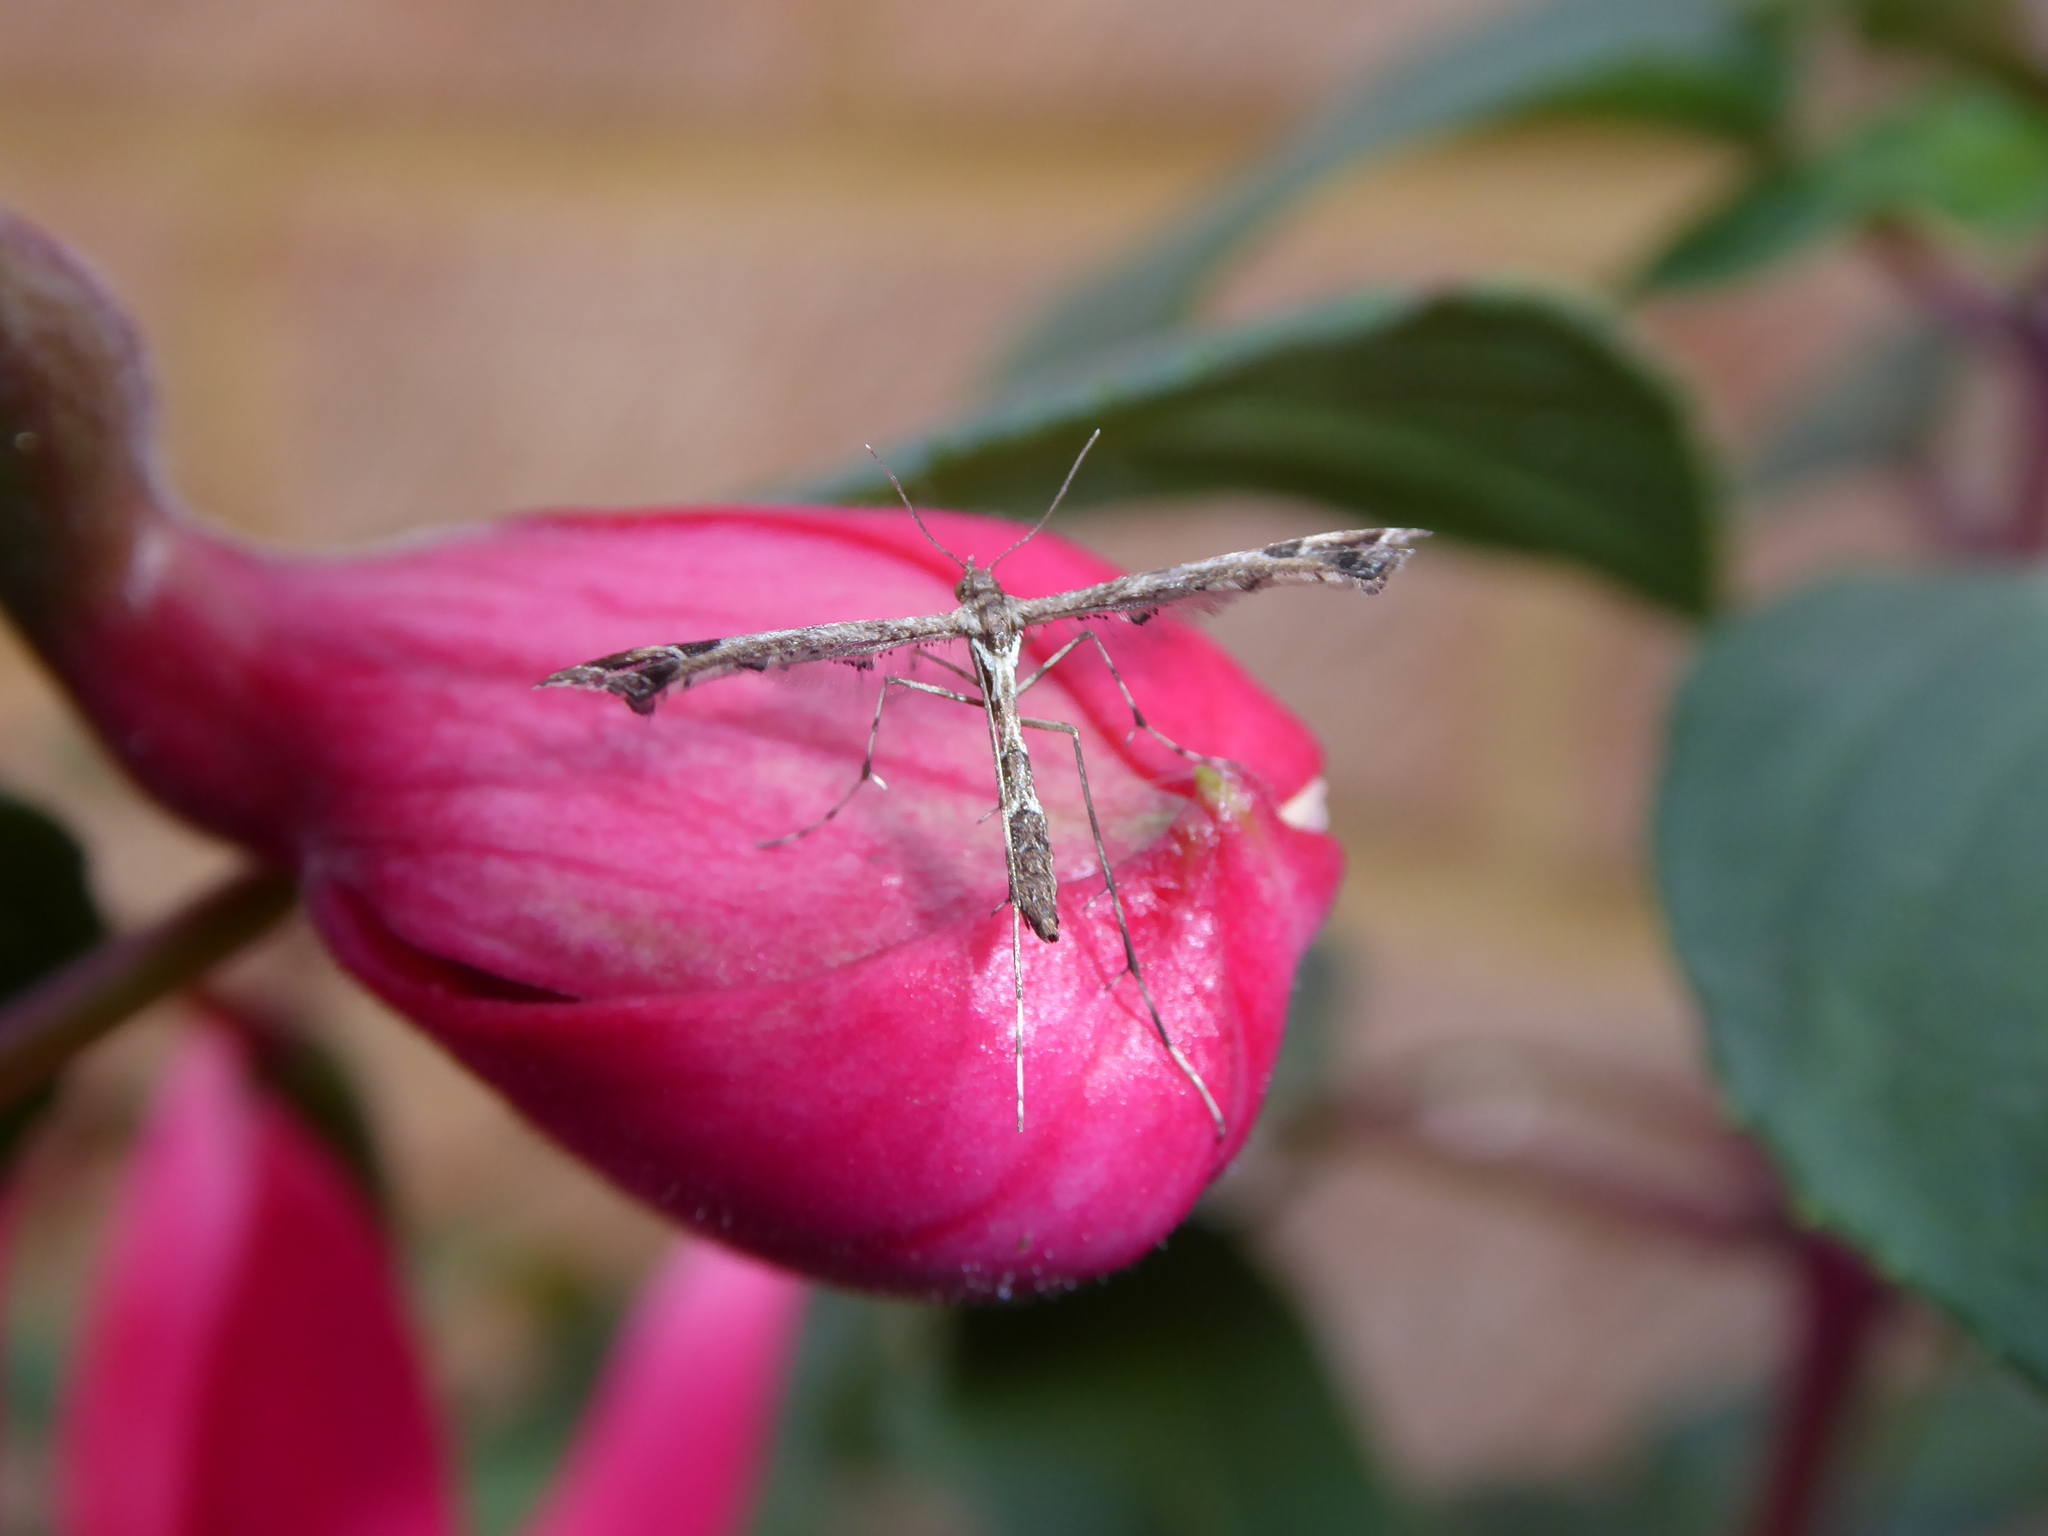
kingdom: Animalia
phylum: Arthropoda
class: Insecta
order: Lepidoptera
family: Pterophoridae
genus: Amblyptilia
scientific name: Amblyptilia punctidactyla
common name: Brindled plume
